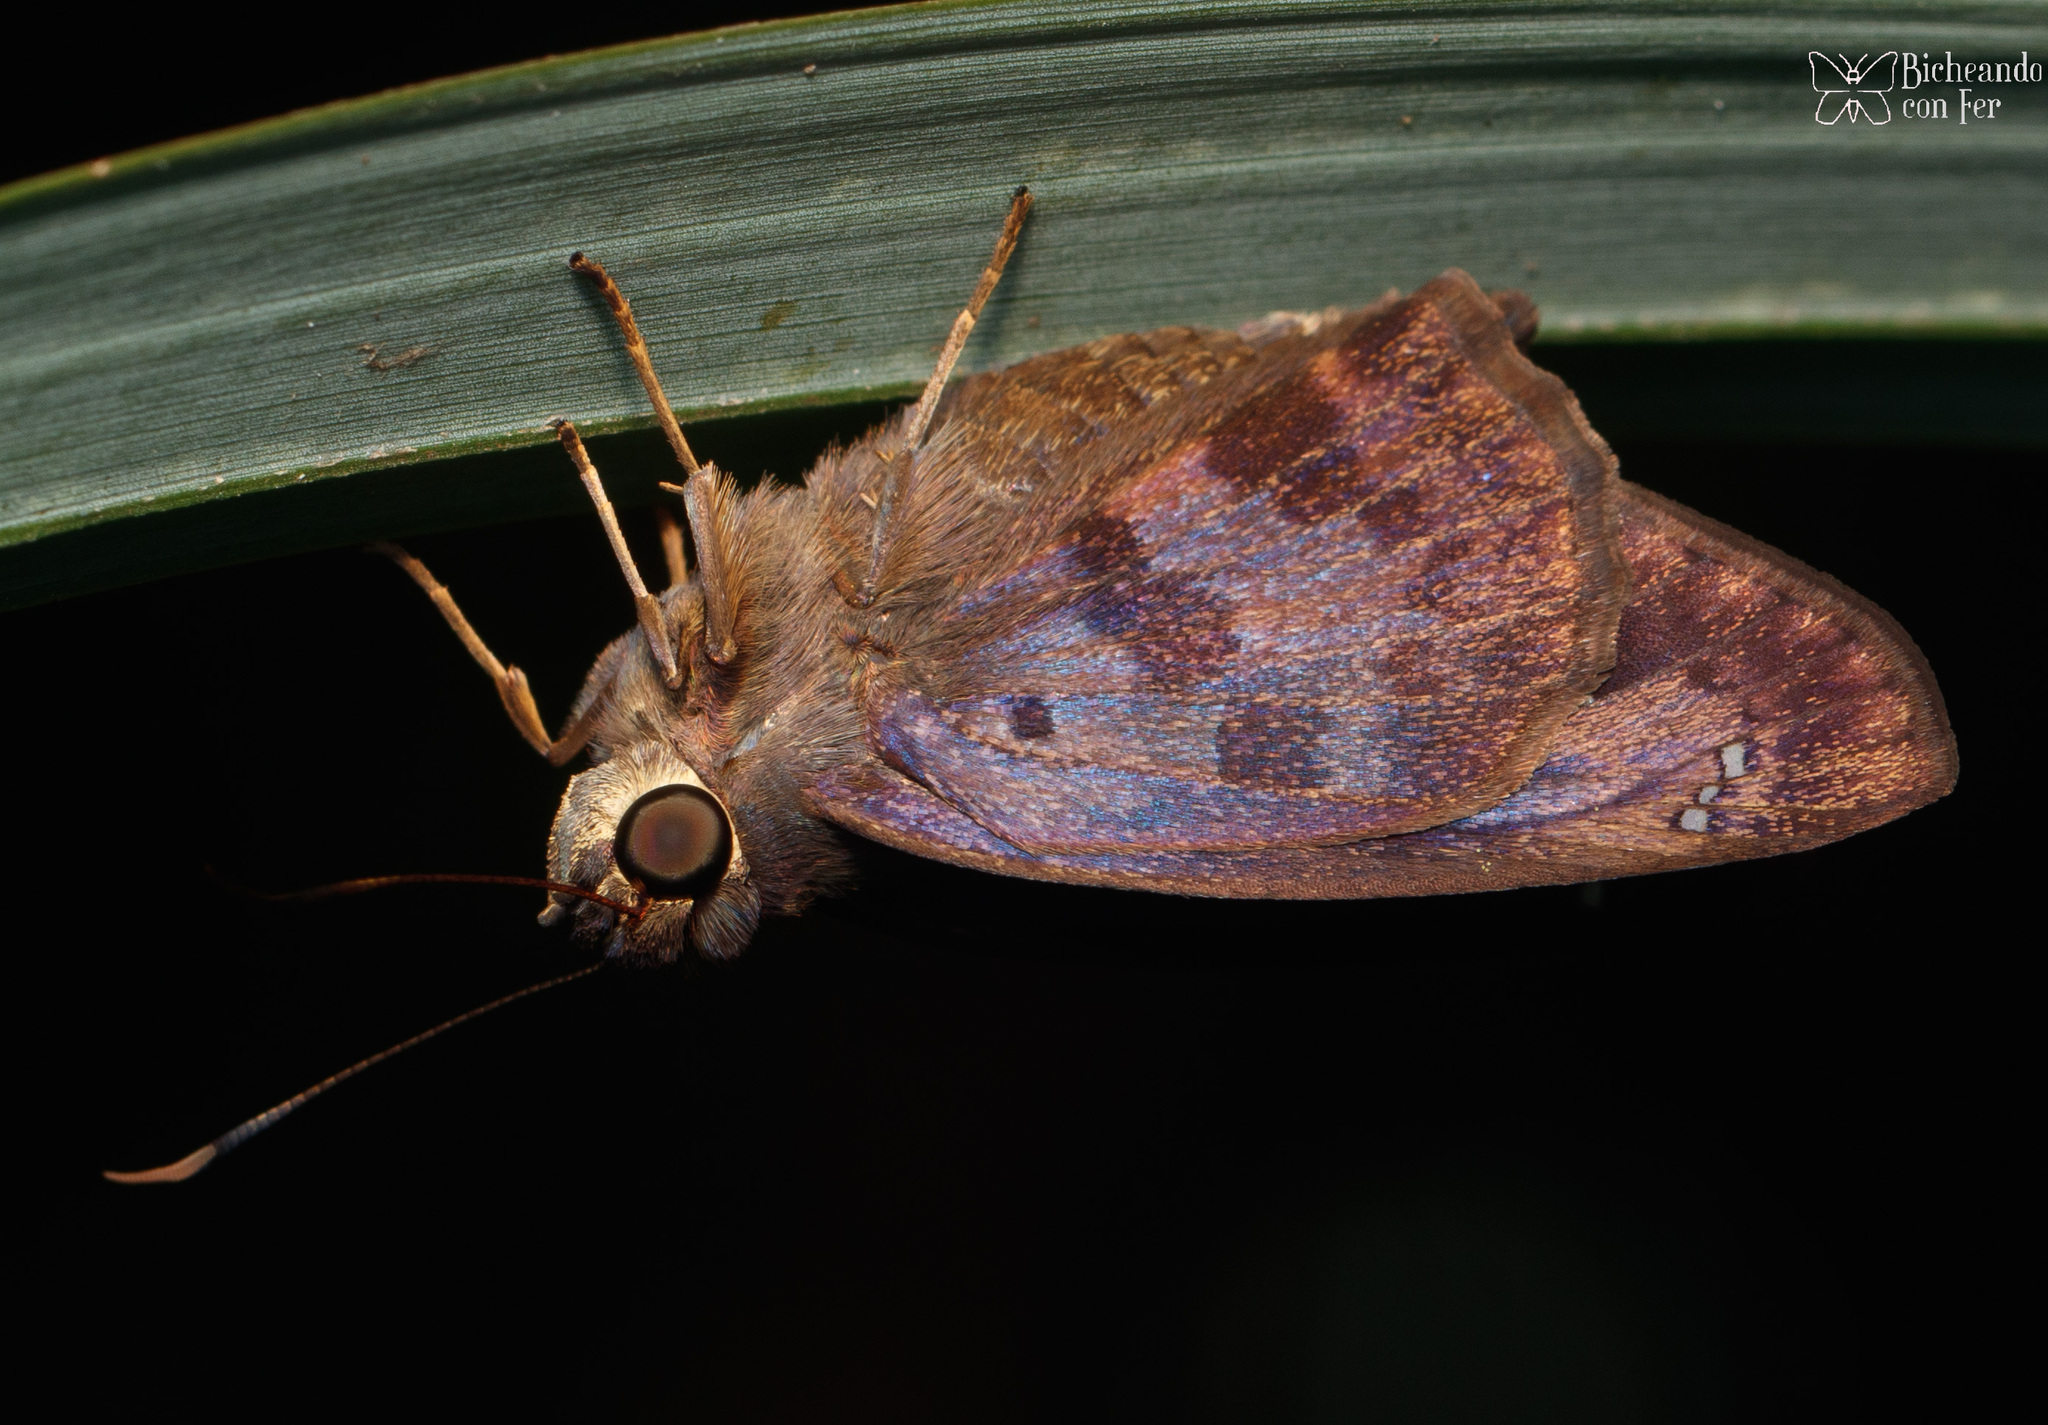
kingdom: Animalia
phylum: Arthropoda
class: Insecta
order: Lepidoptera
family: Hesperiidae
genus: Polygonus
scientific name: Polygonus leo
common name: Hammoch skipper
